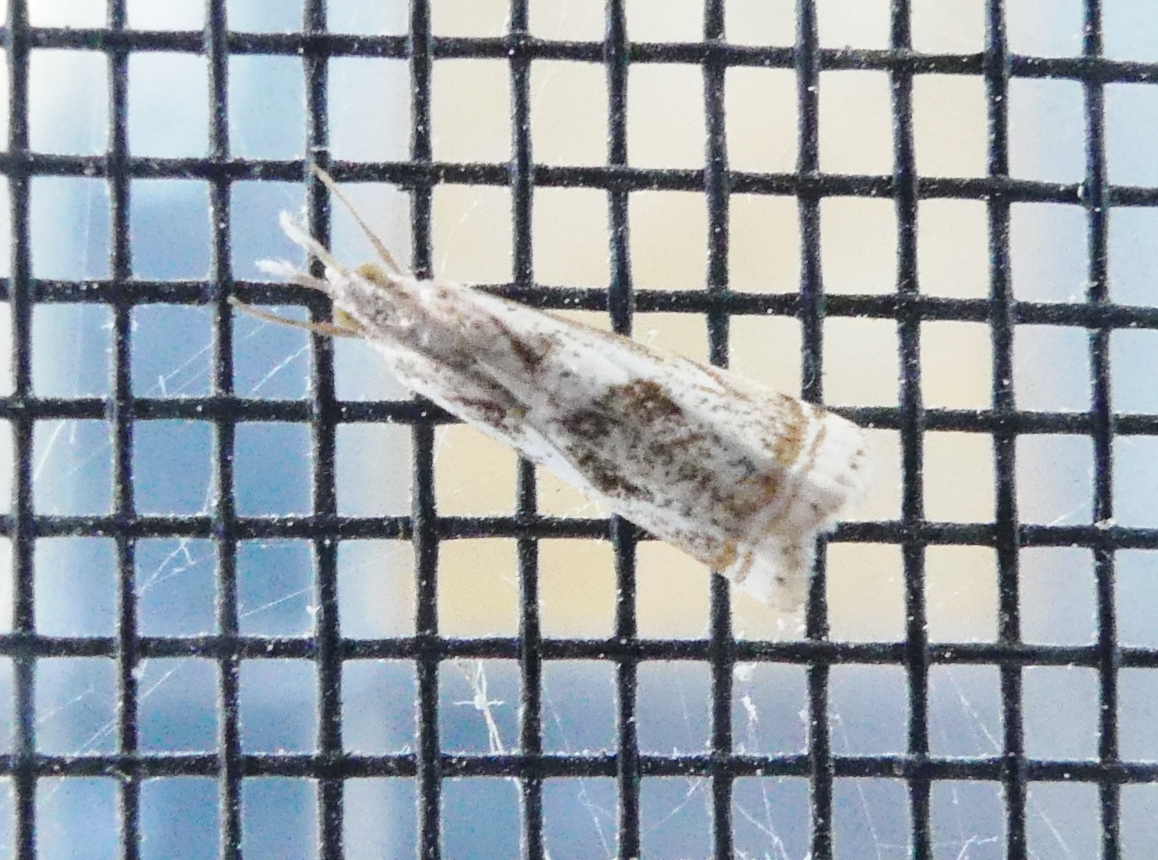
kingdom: Animalia
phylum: Arthropoda
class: Insecta
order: Lepidoptera
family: Crambidae
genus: Microcrambus
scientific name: Microcrambus elegans
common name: Elegant grass-veneer
